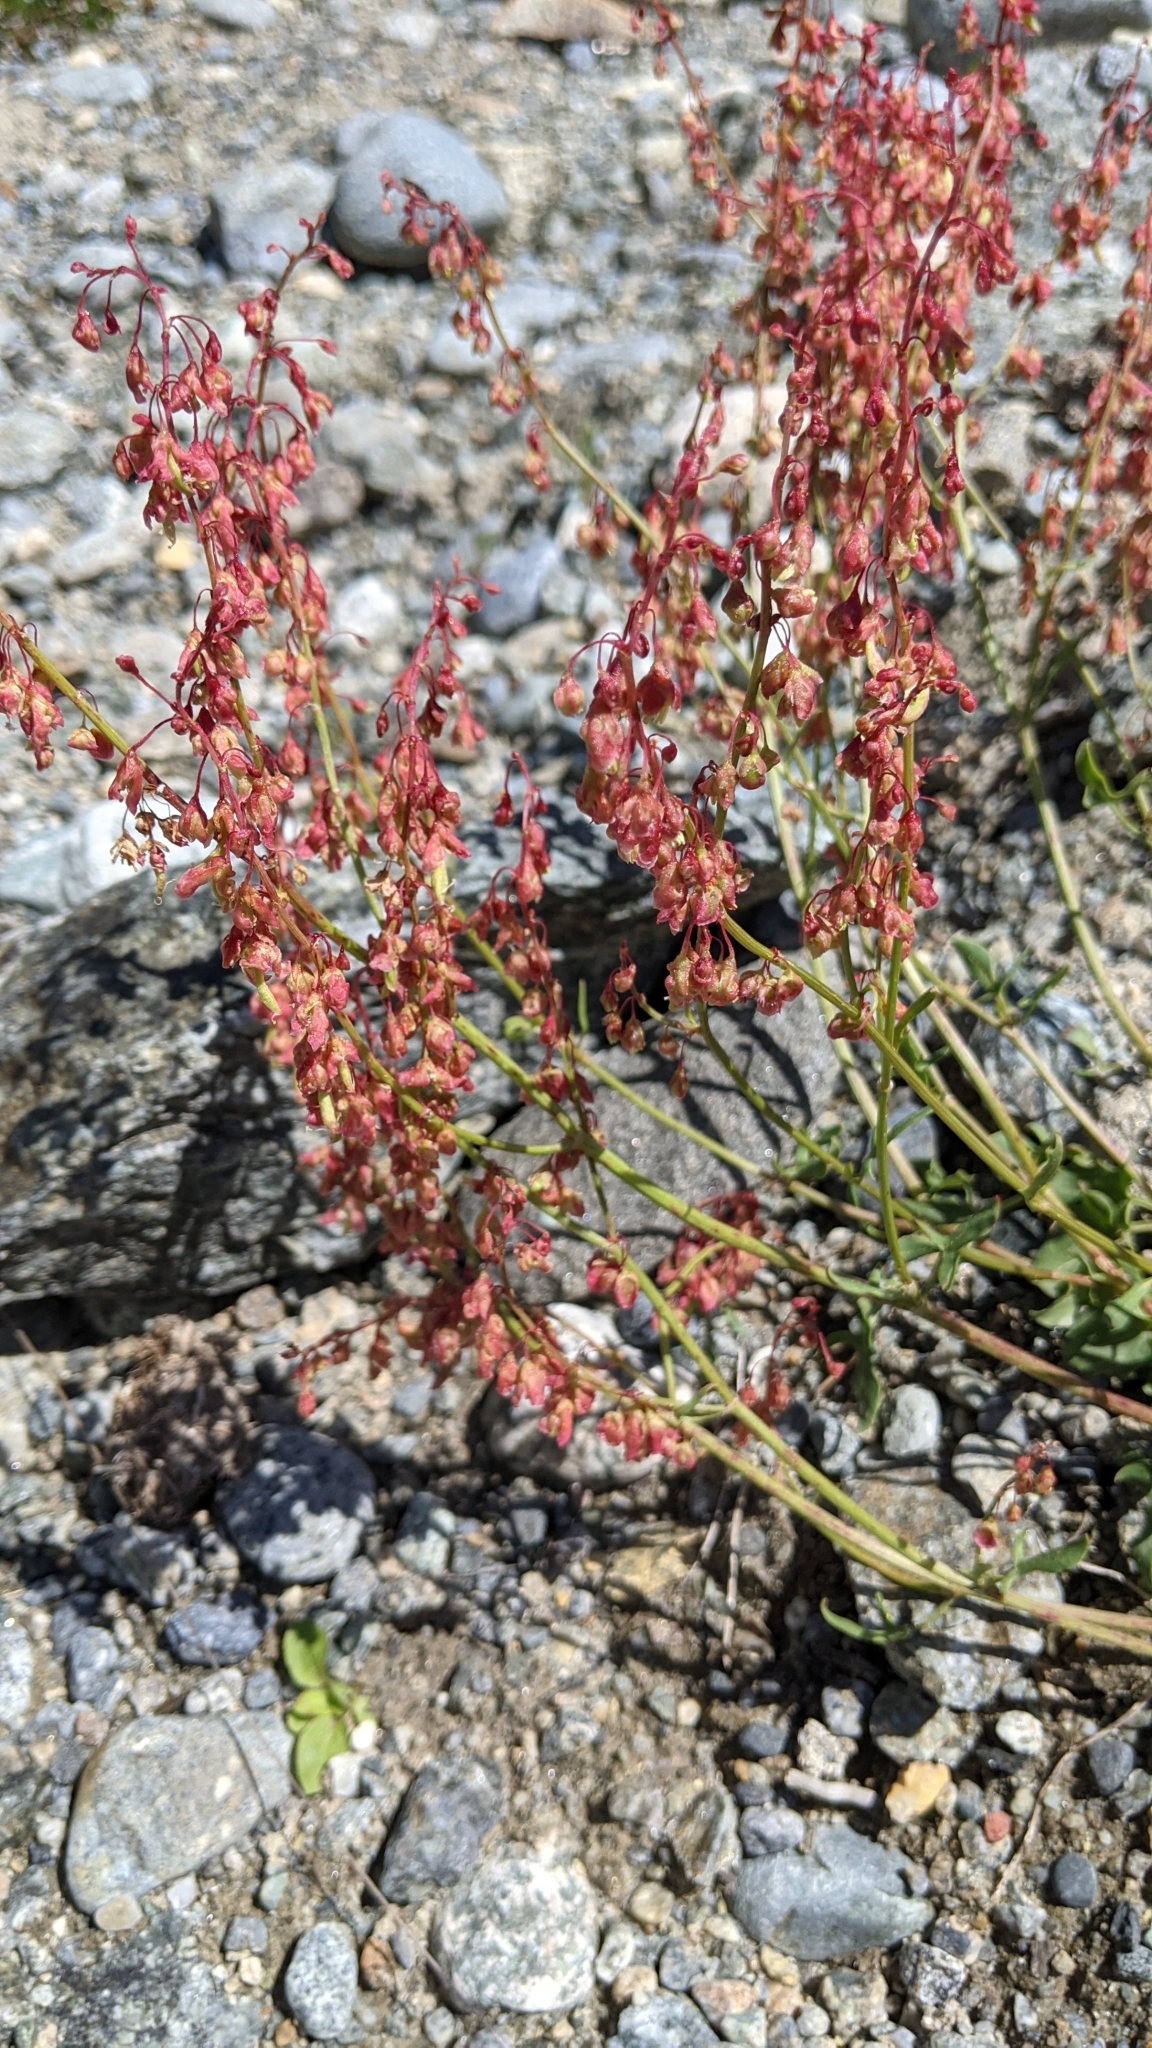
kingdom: Plantae
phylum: Tracheophyta
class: Magnoliopsida
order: Caryophyllales
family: Polygonaceae
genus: Oxyria
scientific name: Oxyria digyna
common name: Alpine mountain-sorrel
